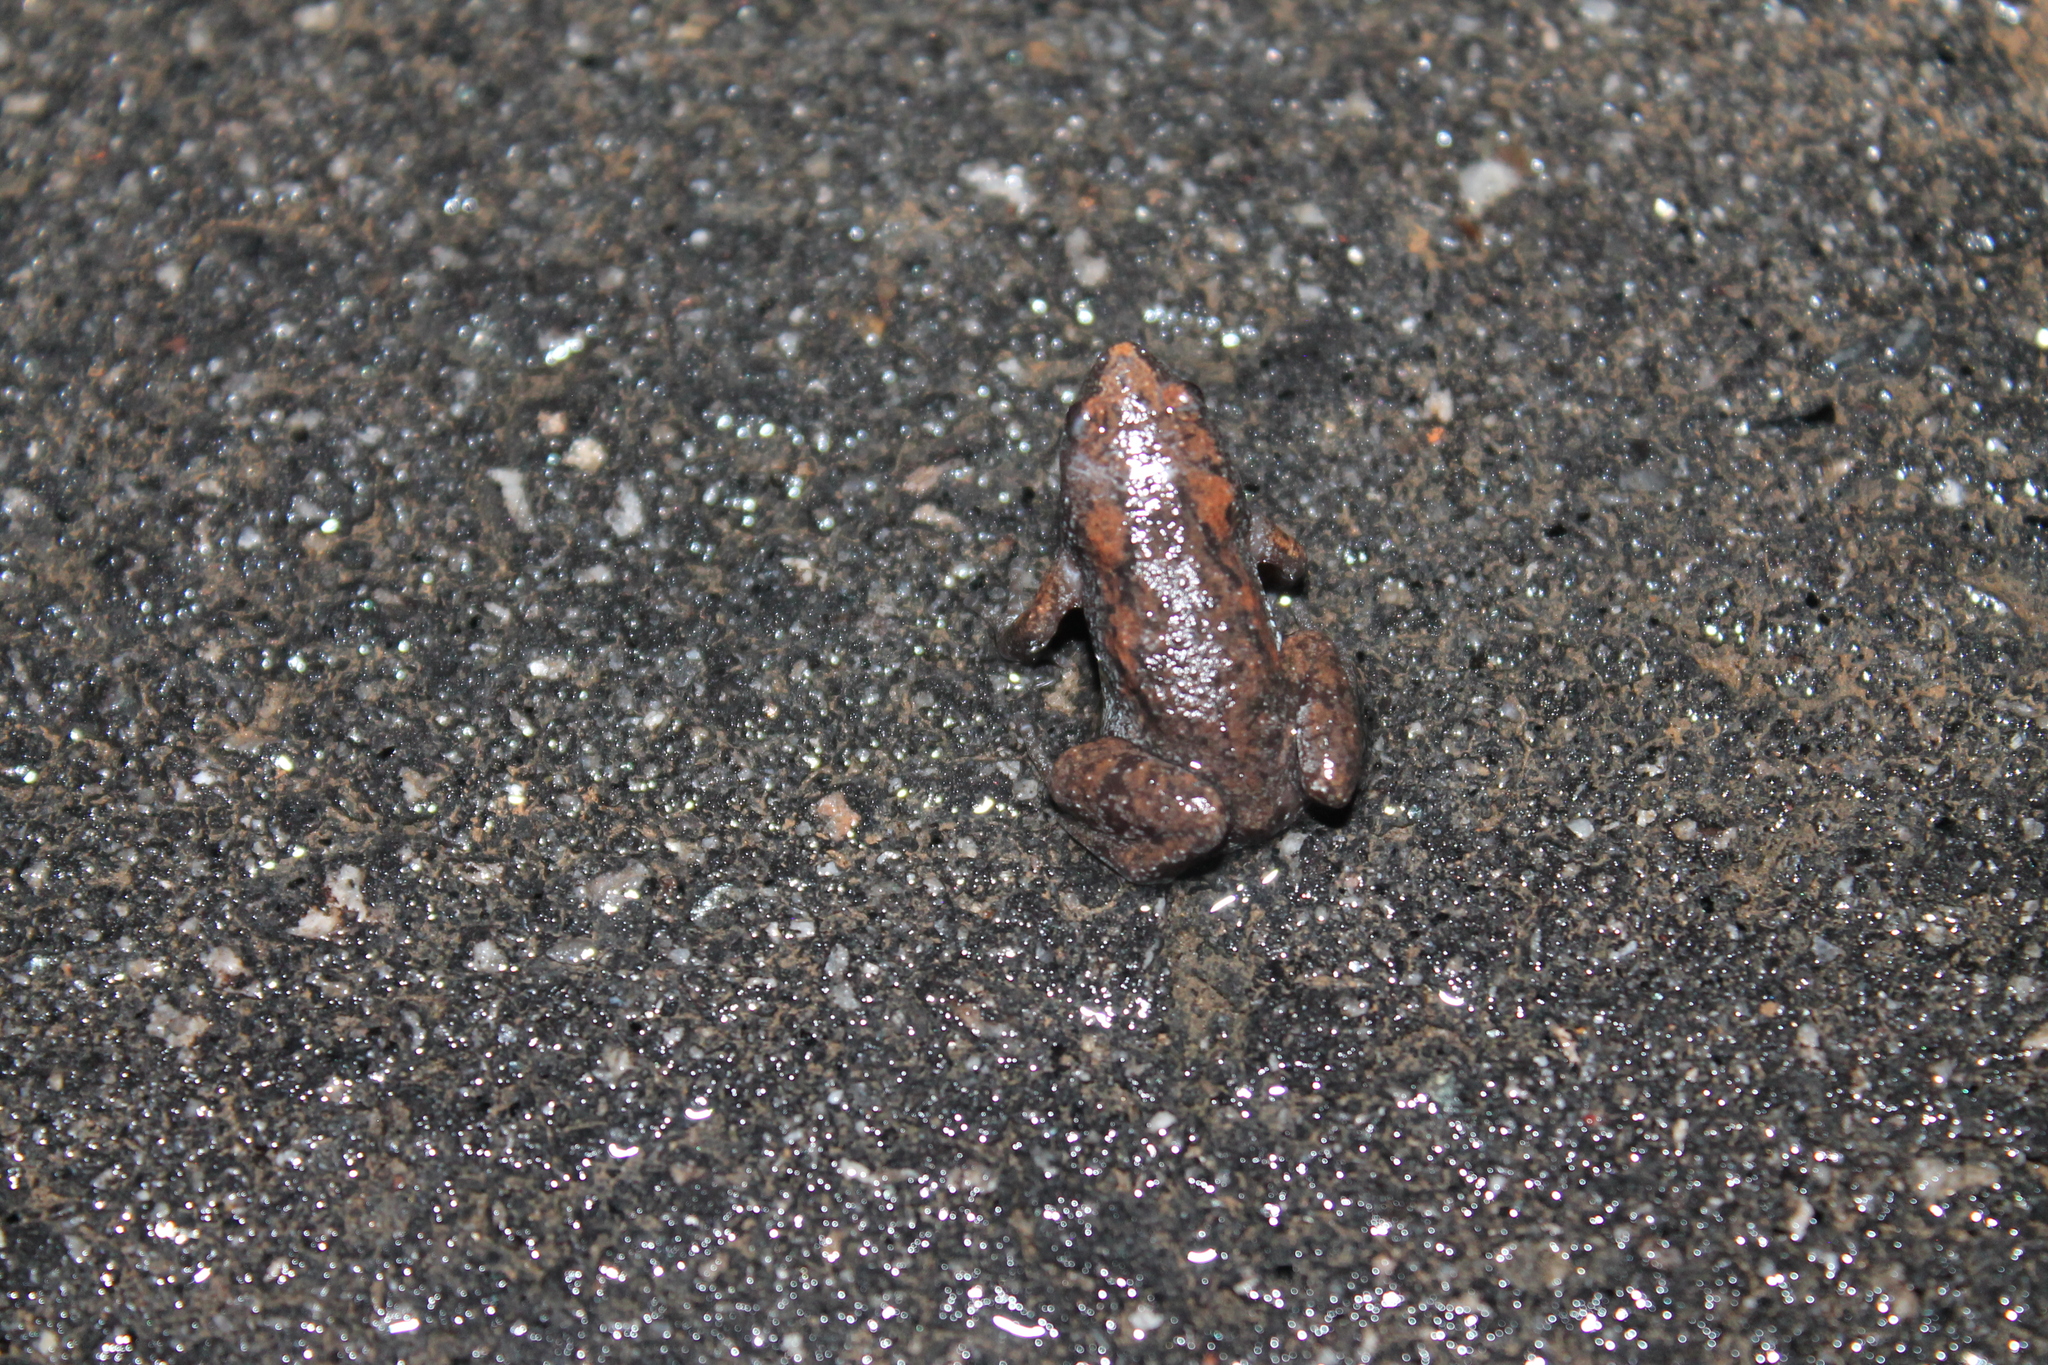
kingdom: Animalia
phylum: Chordata
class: Amphibia
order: Anura
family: Microhylidae
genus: Gastrophryne
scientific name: Gastrophryne carolinensis
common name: Eastern narrowmouth toad
